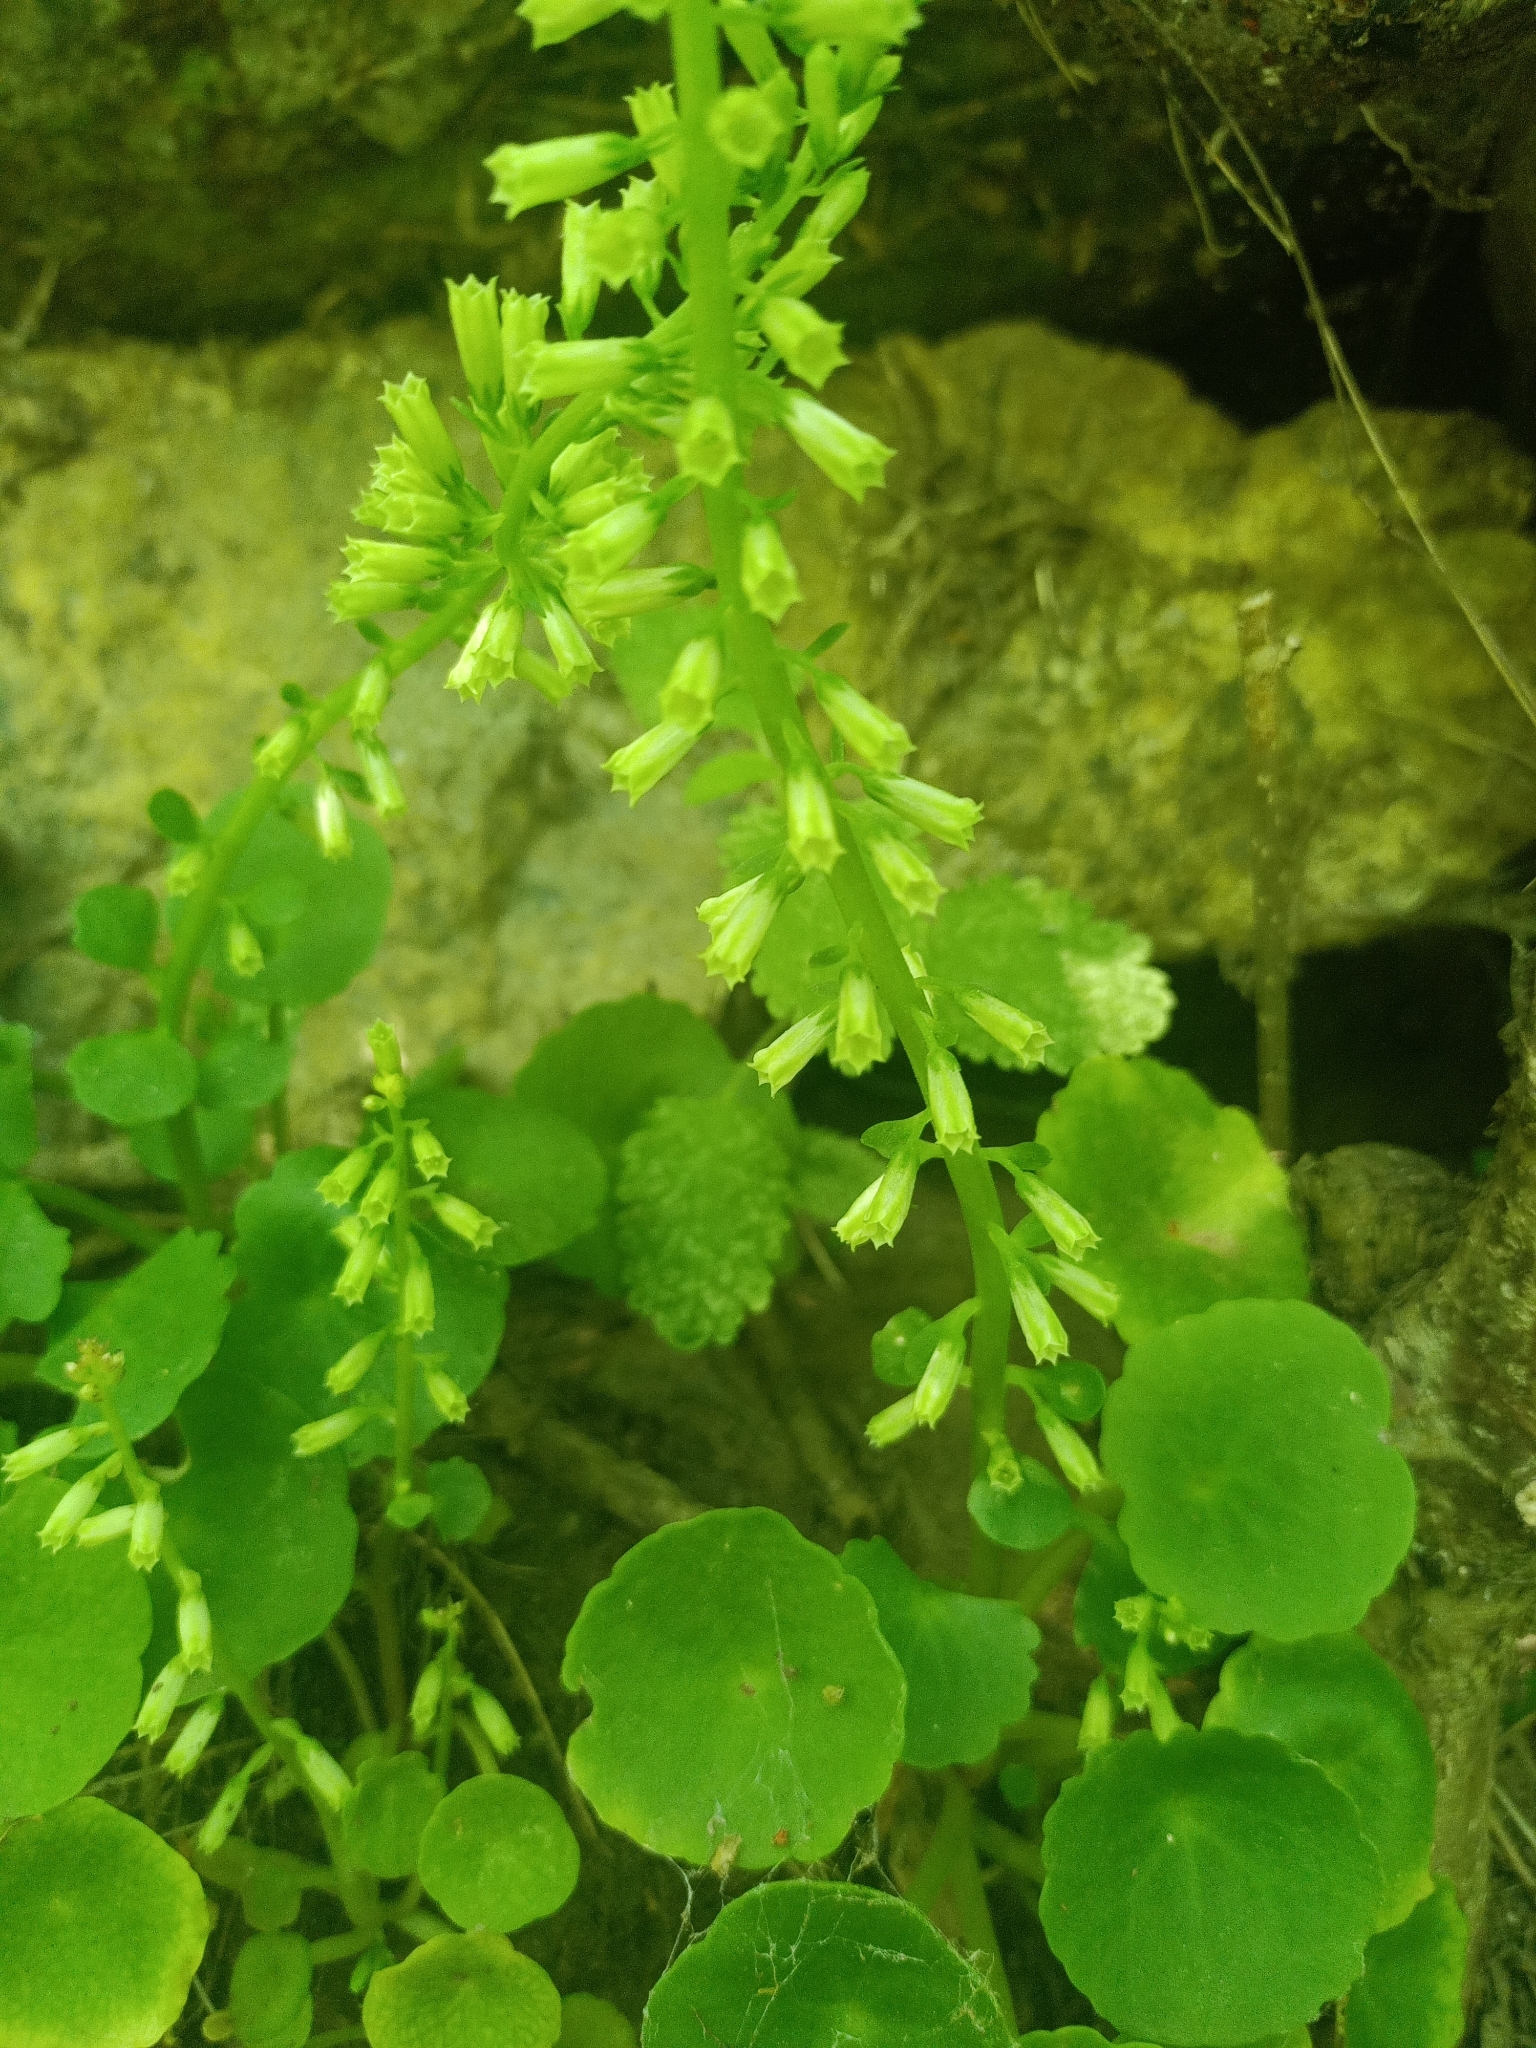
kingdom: Plantae
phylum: Tracheophyta
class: Magnoliopsida
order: Saxifragales
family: Crassulaceae
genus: Umbilicus
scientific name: Umbilicus rupestris
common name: Navelwort
